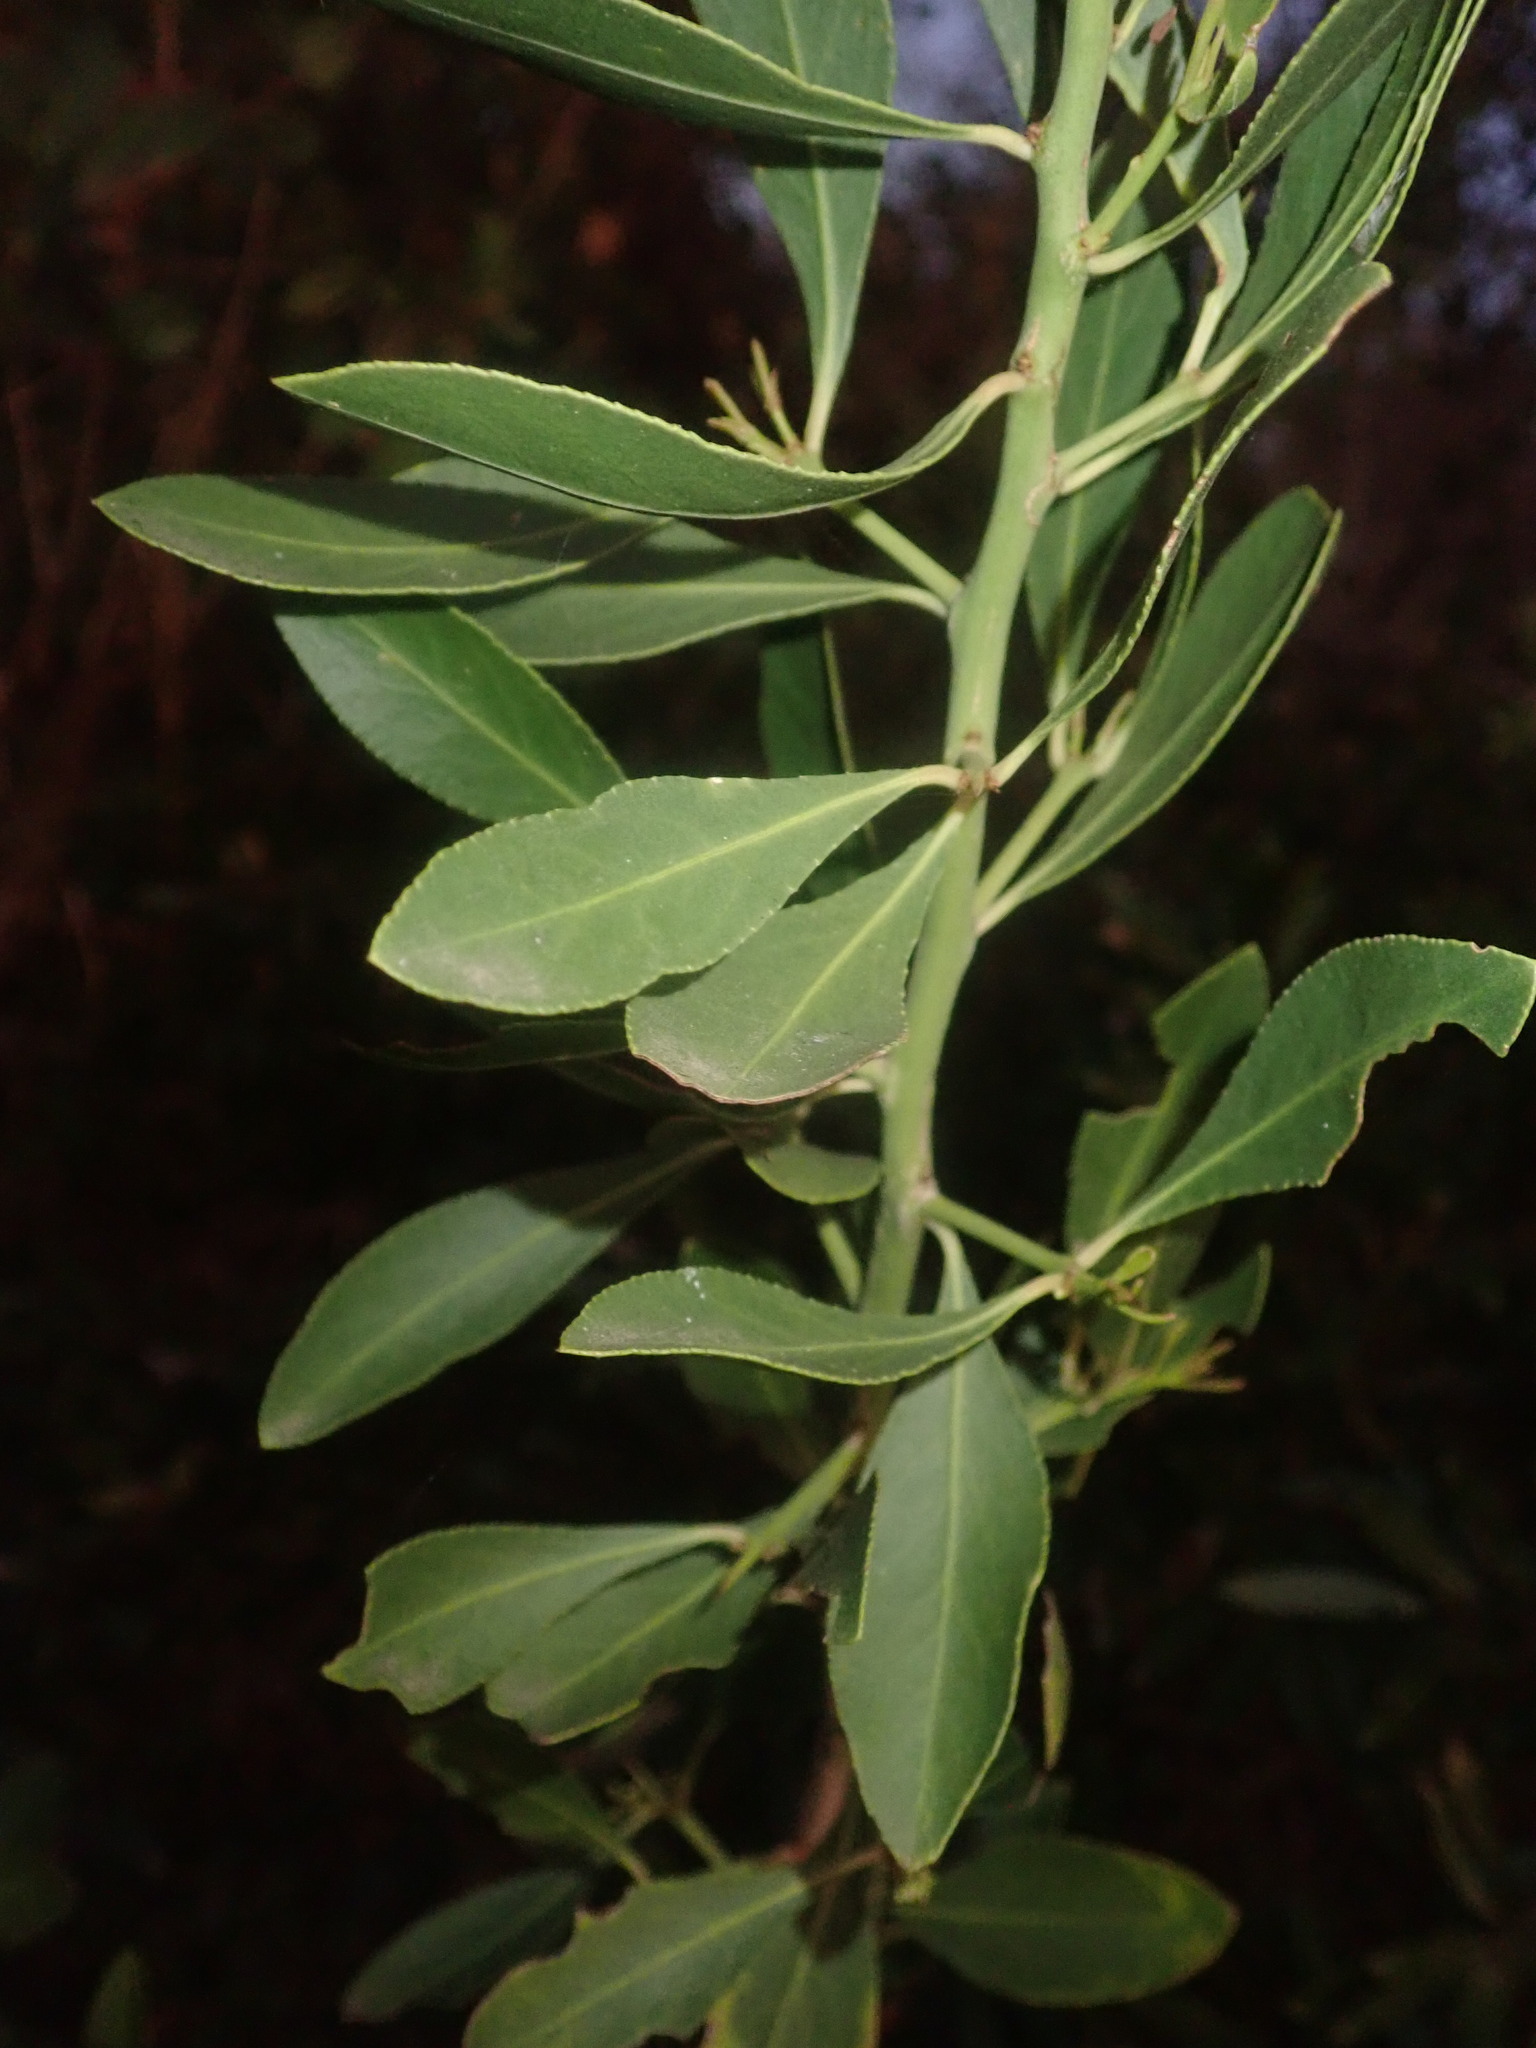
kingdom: Plantae
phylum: Tracheophyta
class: Magnoliopsida
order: Celastrales
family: Celastraceae
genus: Gymnosporia
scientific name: Gymnosporia senegalensis
